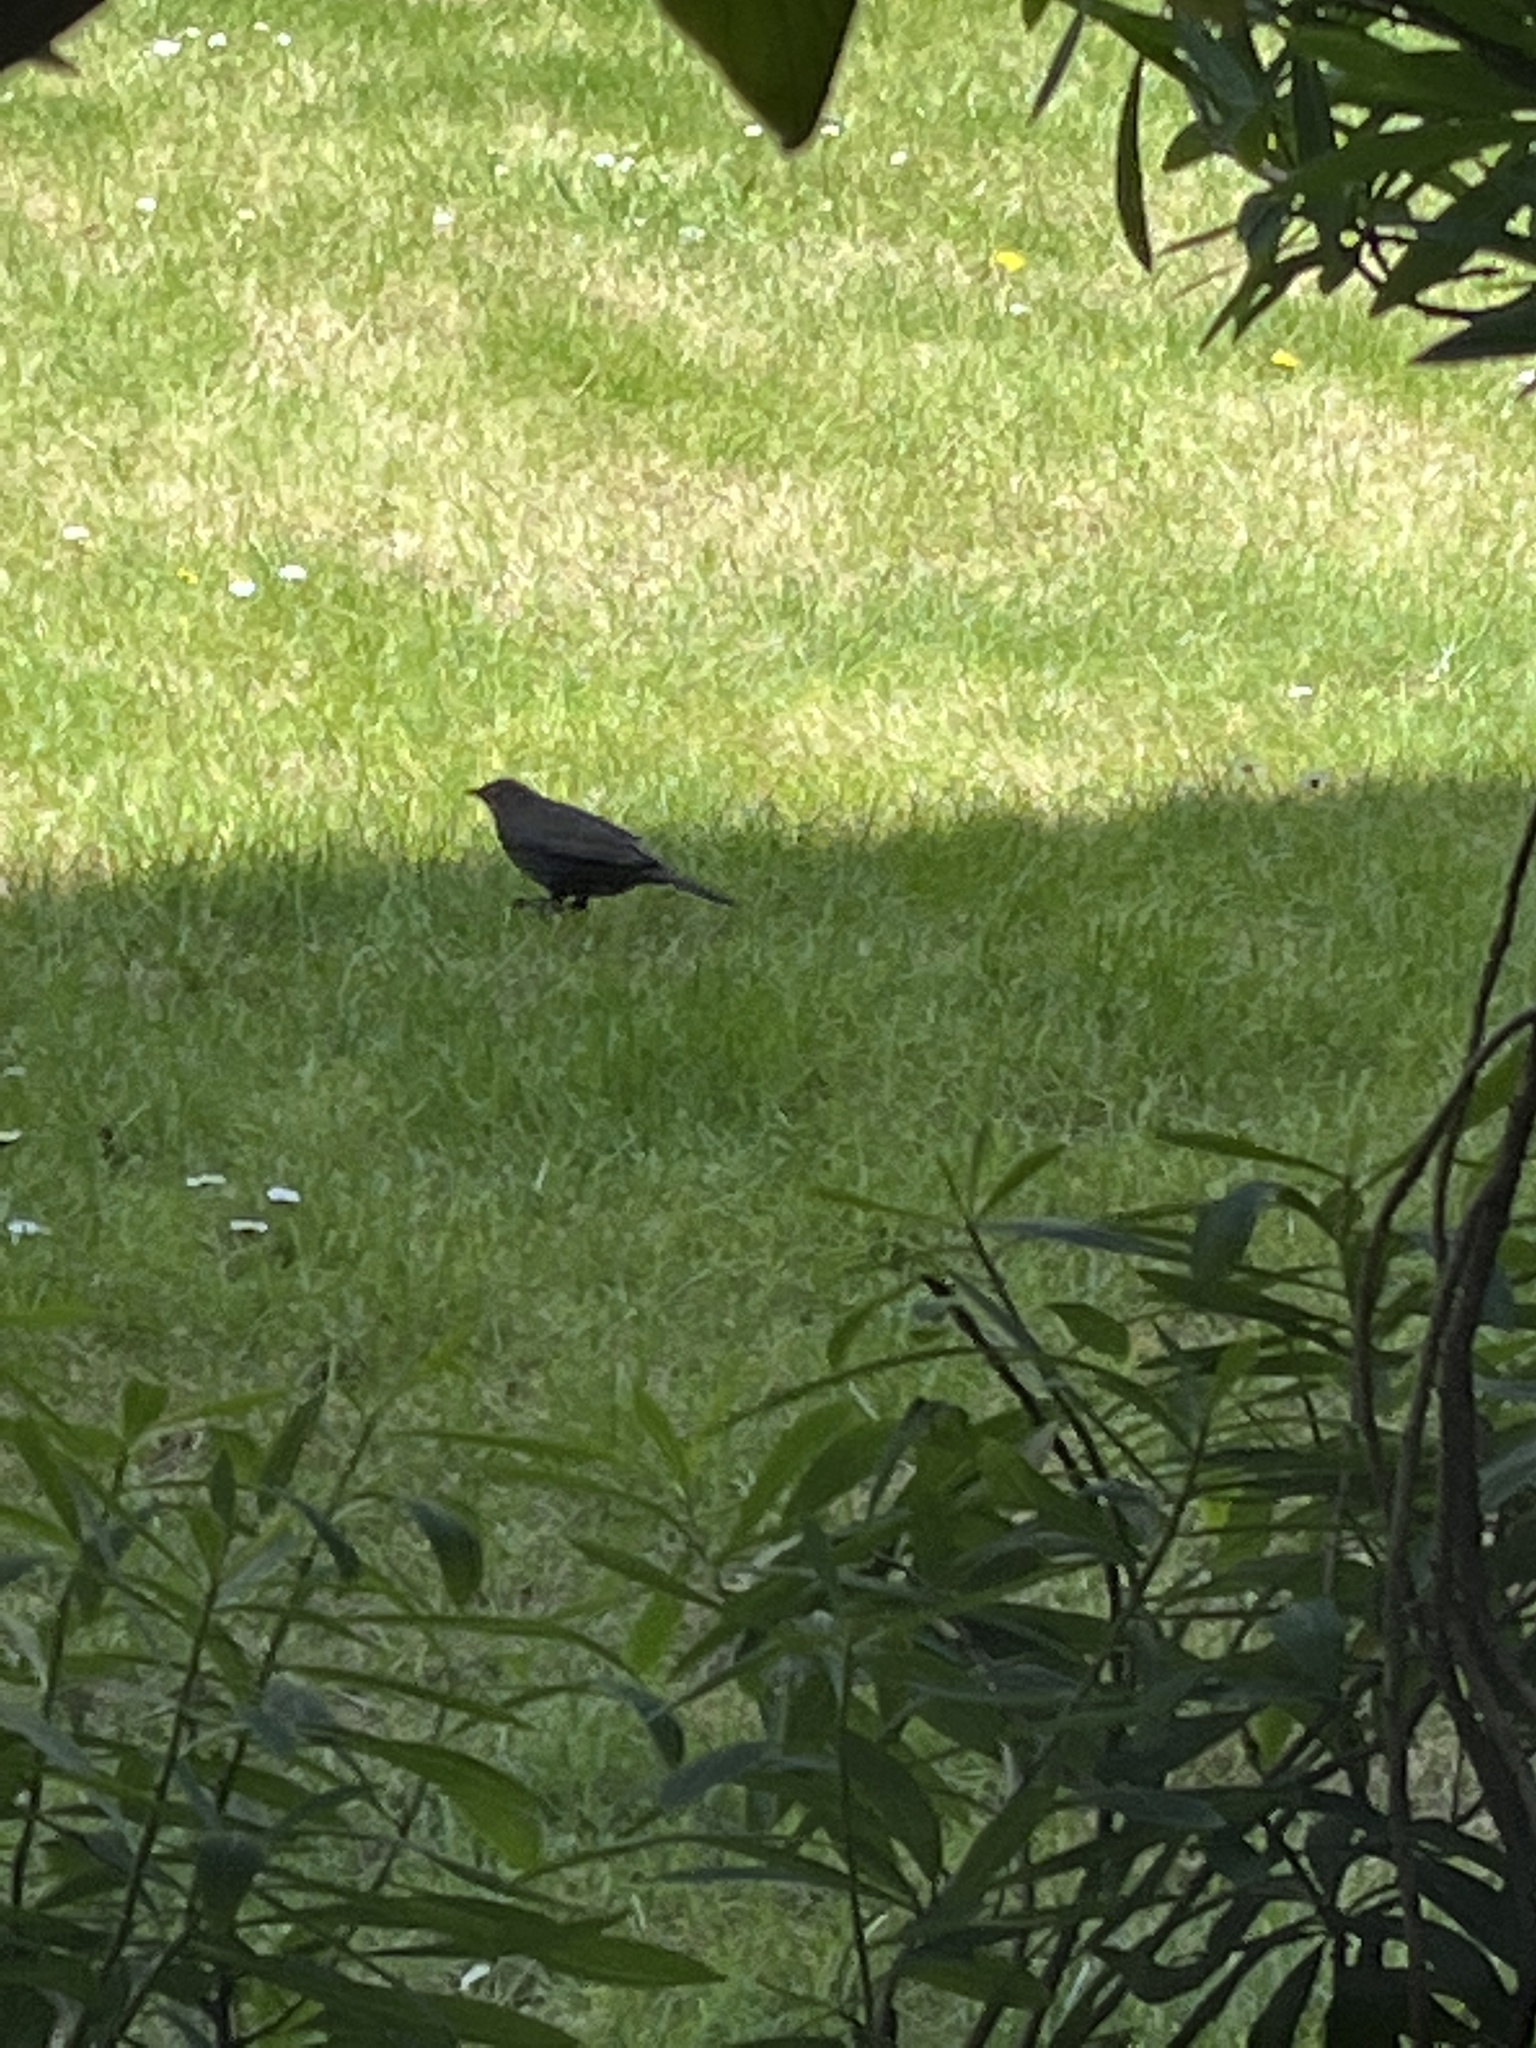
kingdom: Animalia
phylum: Chordata
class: Aves
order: Passeriformes
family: Turdidae
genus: Turdus
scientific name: Turdus merula
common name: Common blackbird
